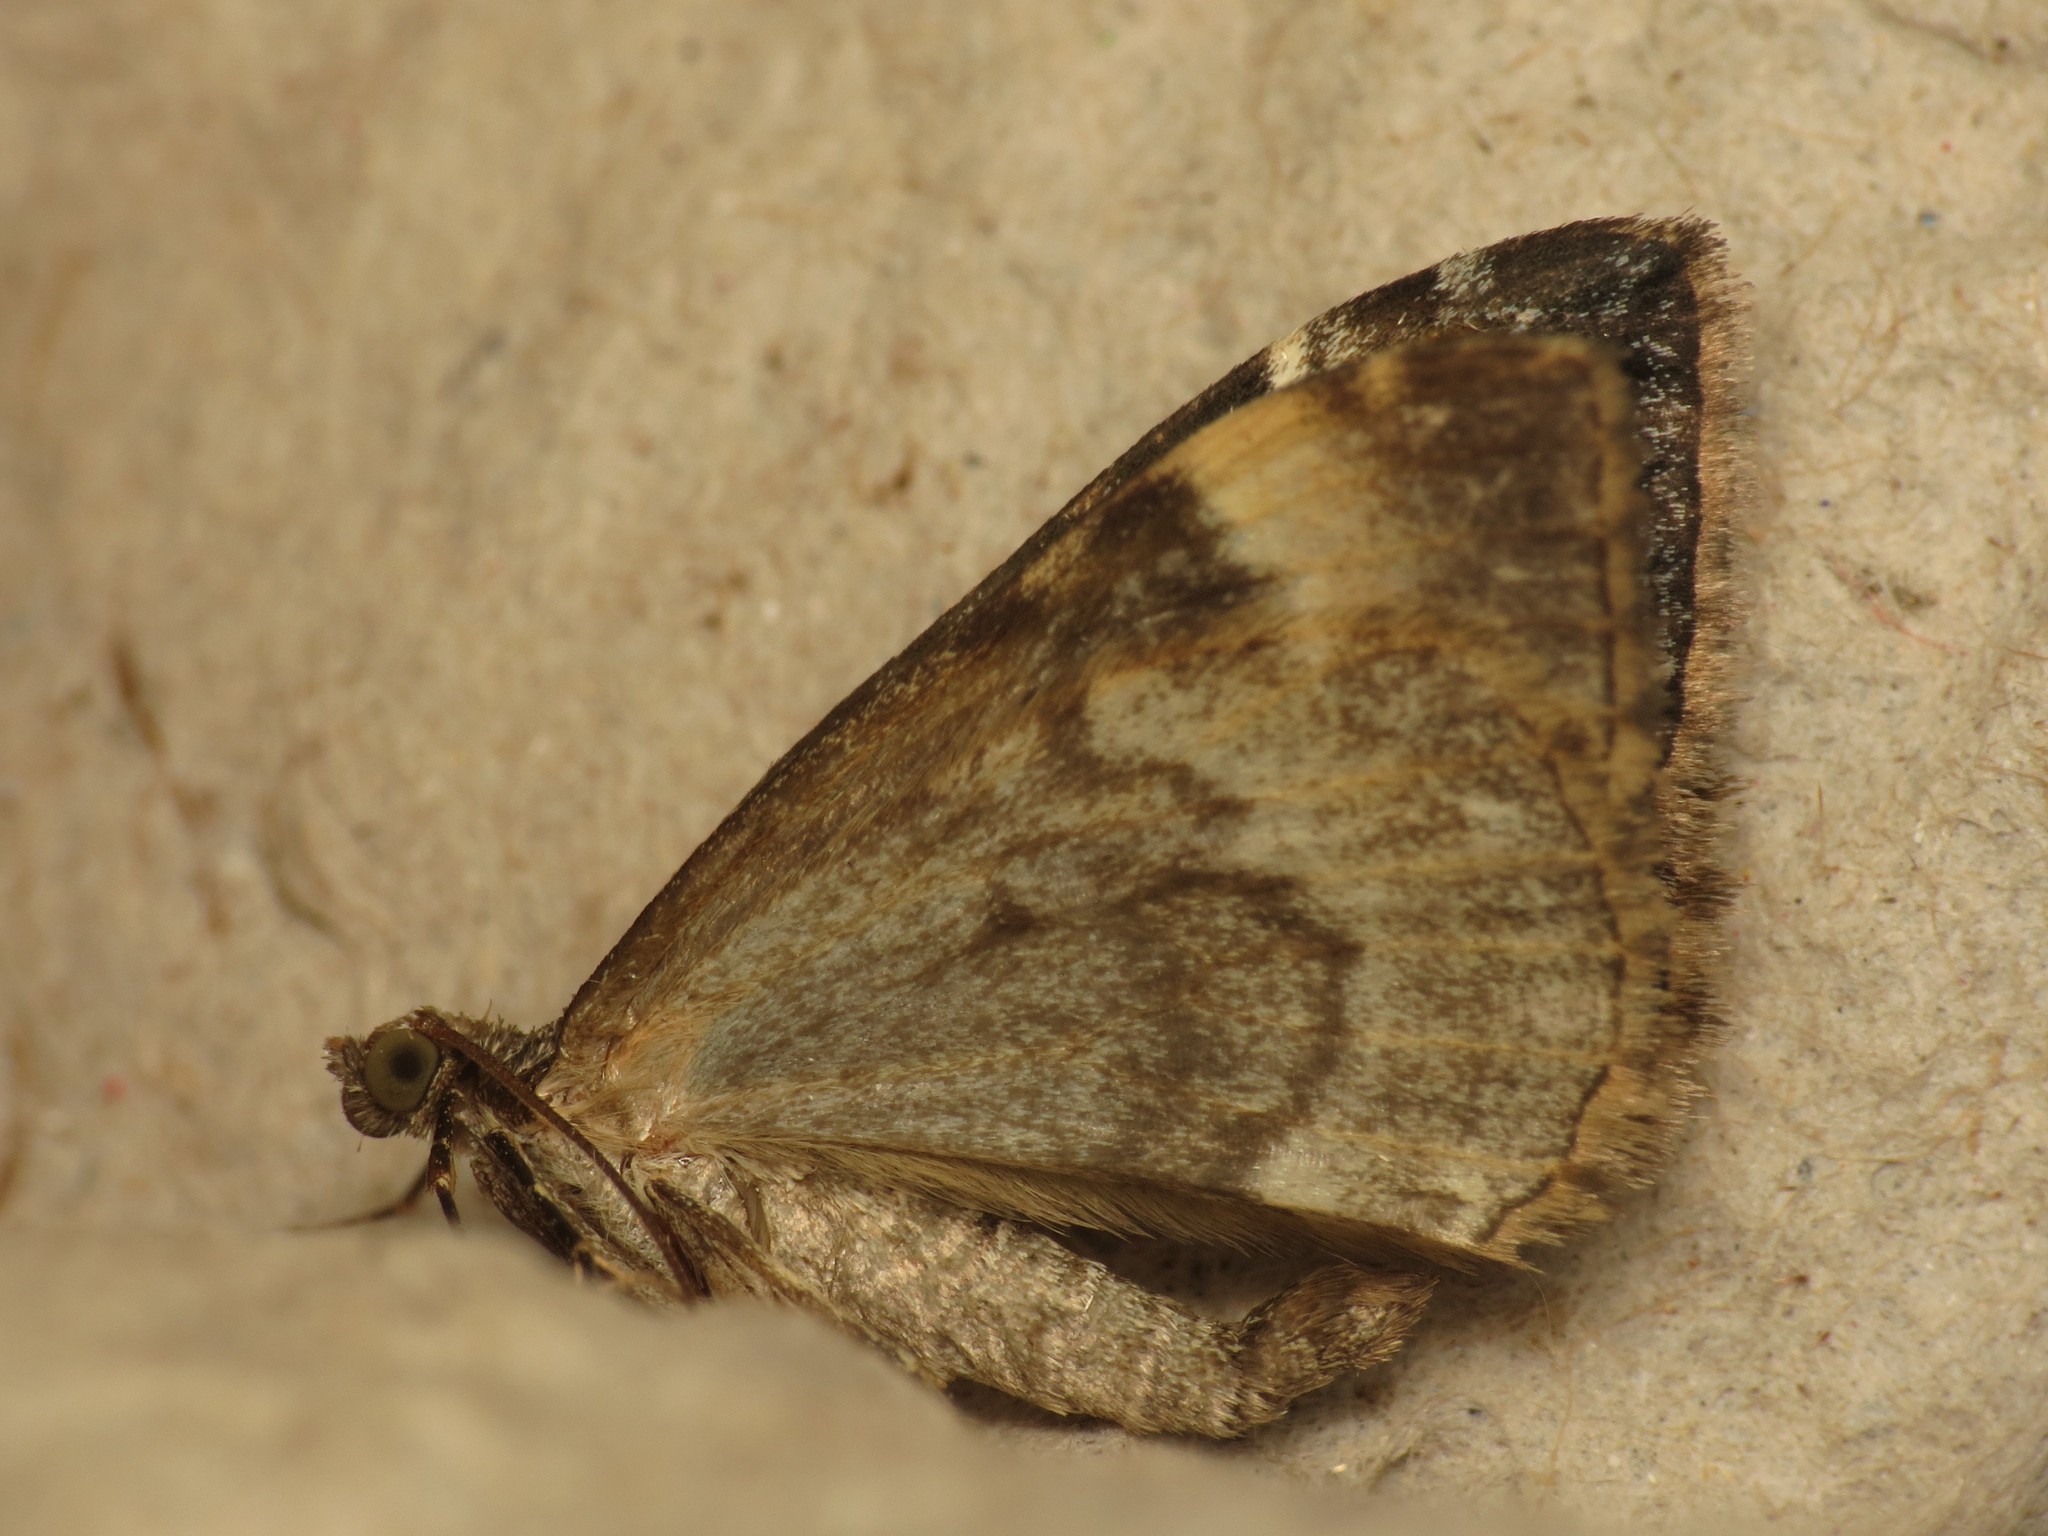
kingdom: Animalia
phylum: Arthropoda
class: Insecta
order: Lepidoptera
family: Geometridae
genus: Dysstroma
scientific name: Dysstroma truncata
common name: Common marbled carpet
